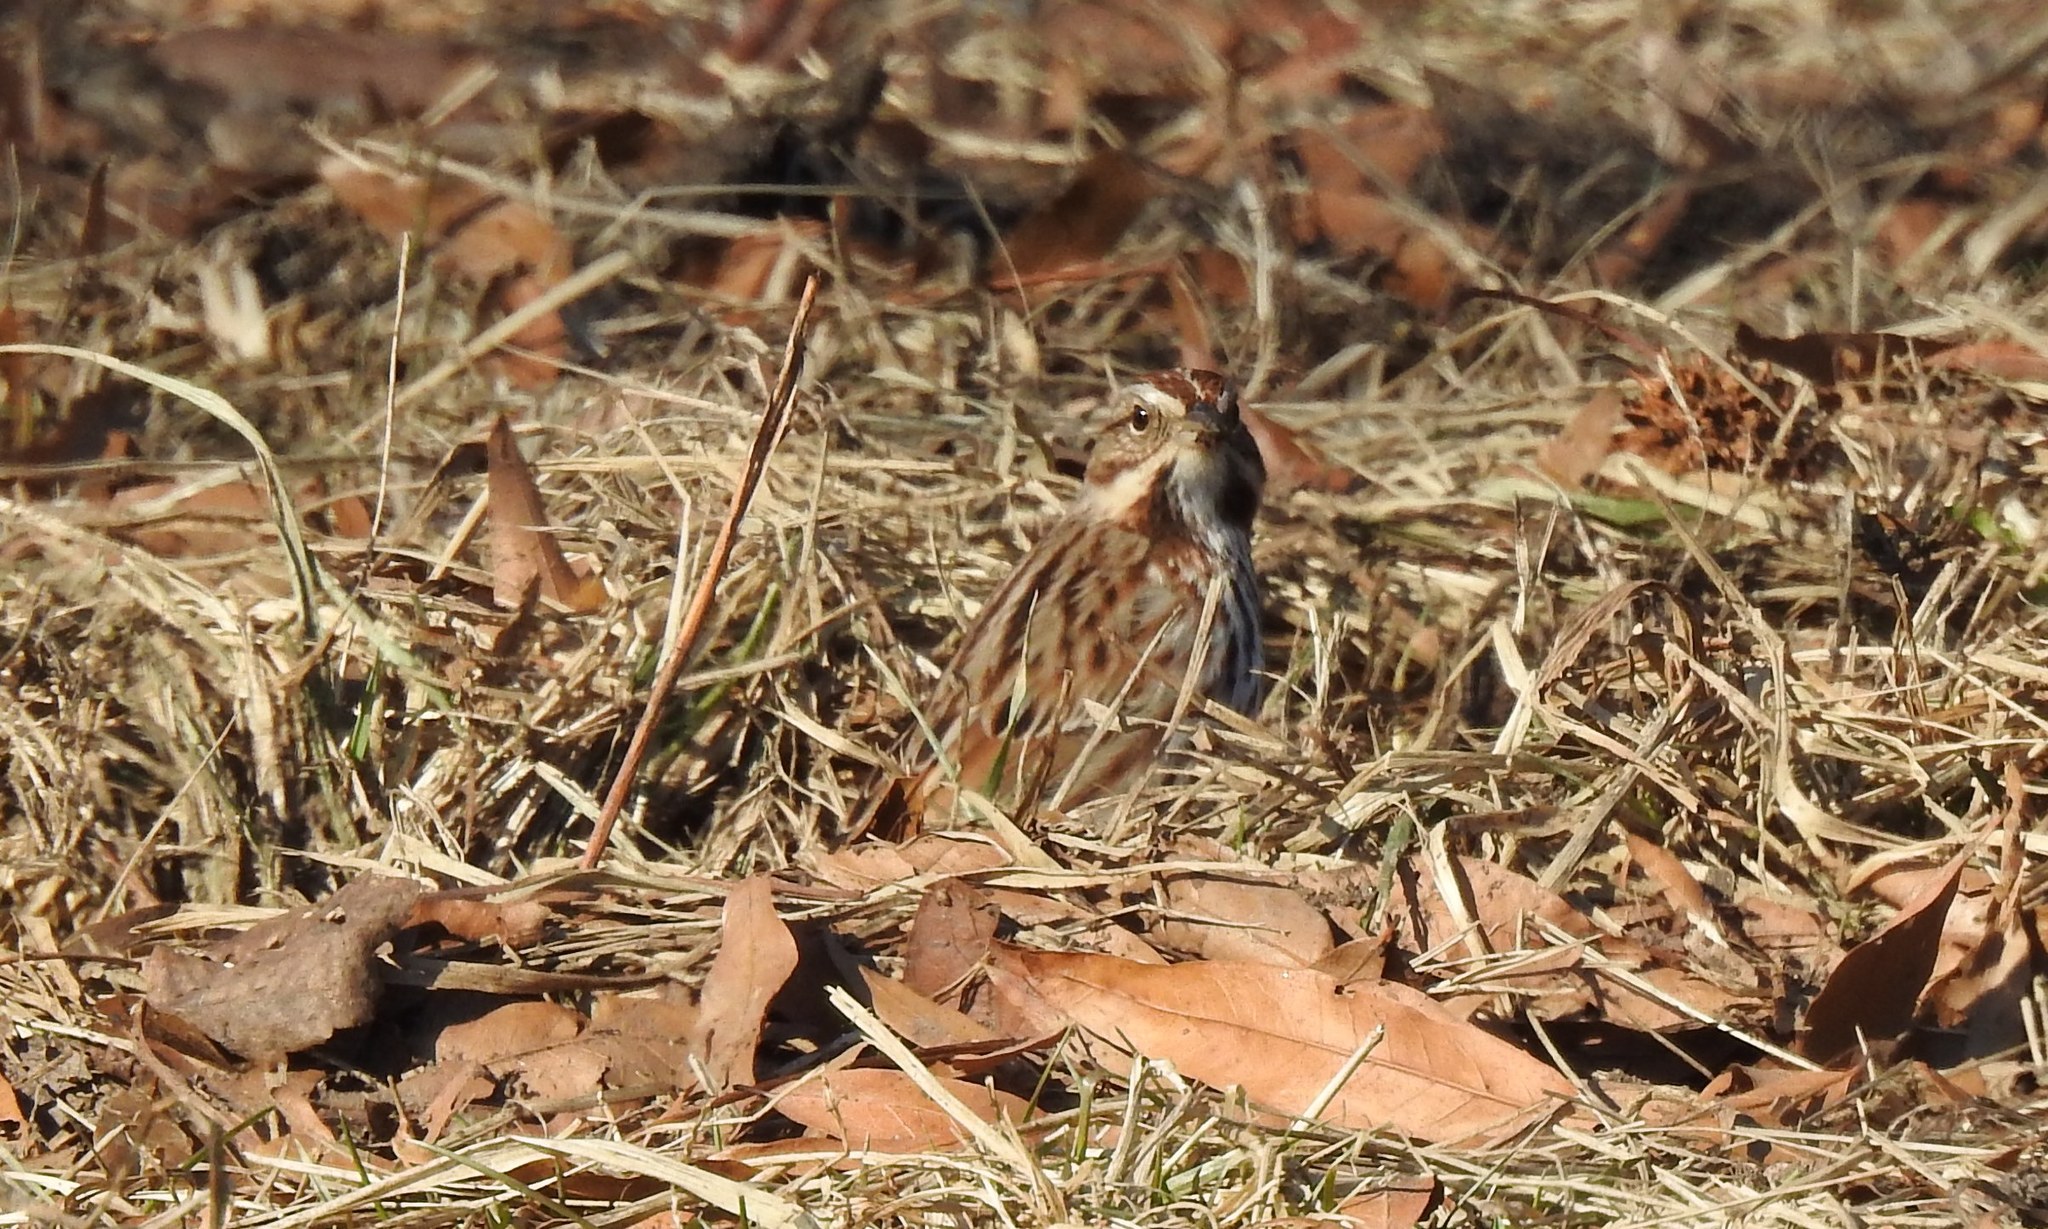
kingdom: Animalia
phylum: Chordata
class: Aves
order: Passeriformes
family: Passerellidae
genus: Melospiza
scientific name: Melospiza melodia
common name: Song sparrow
